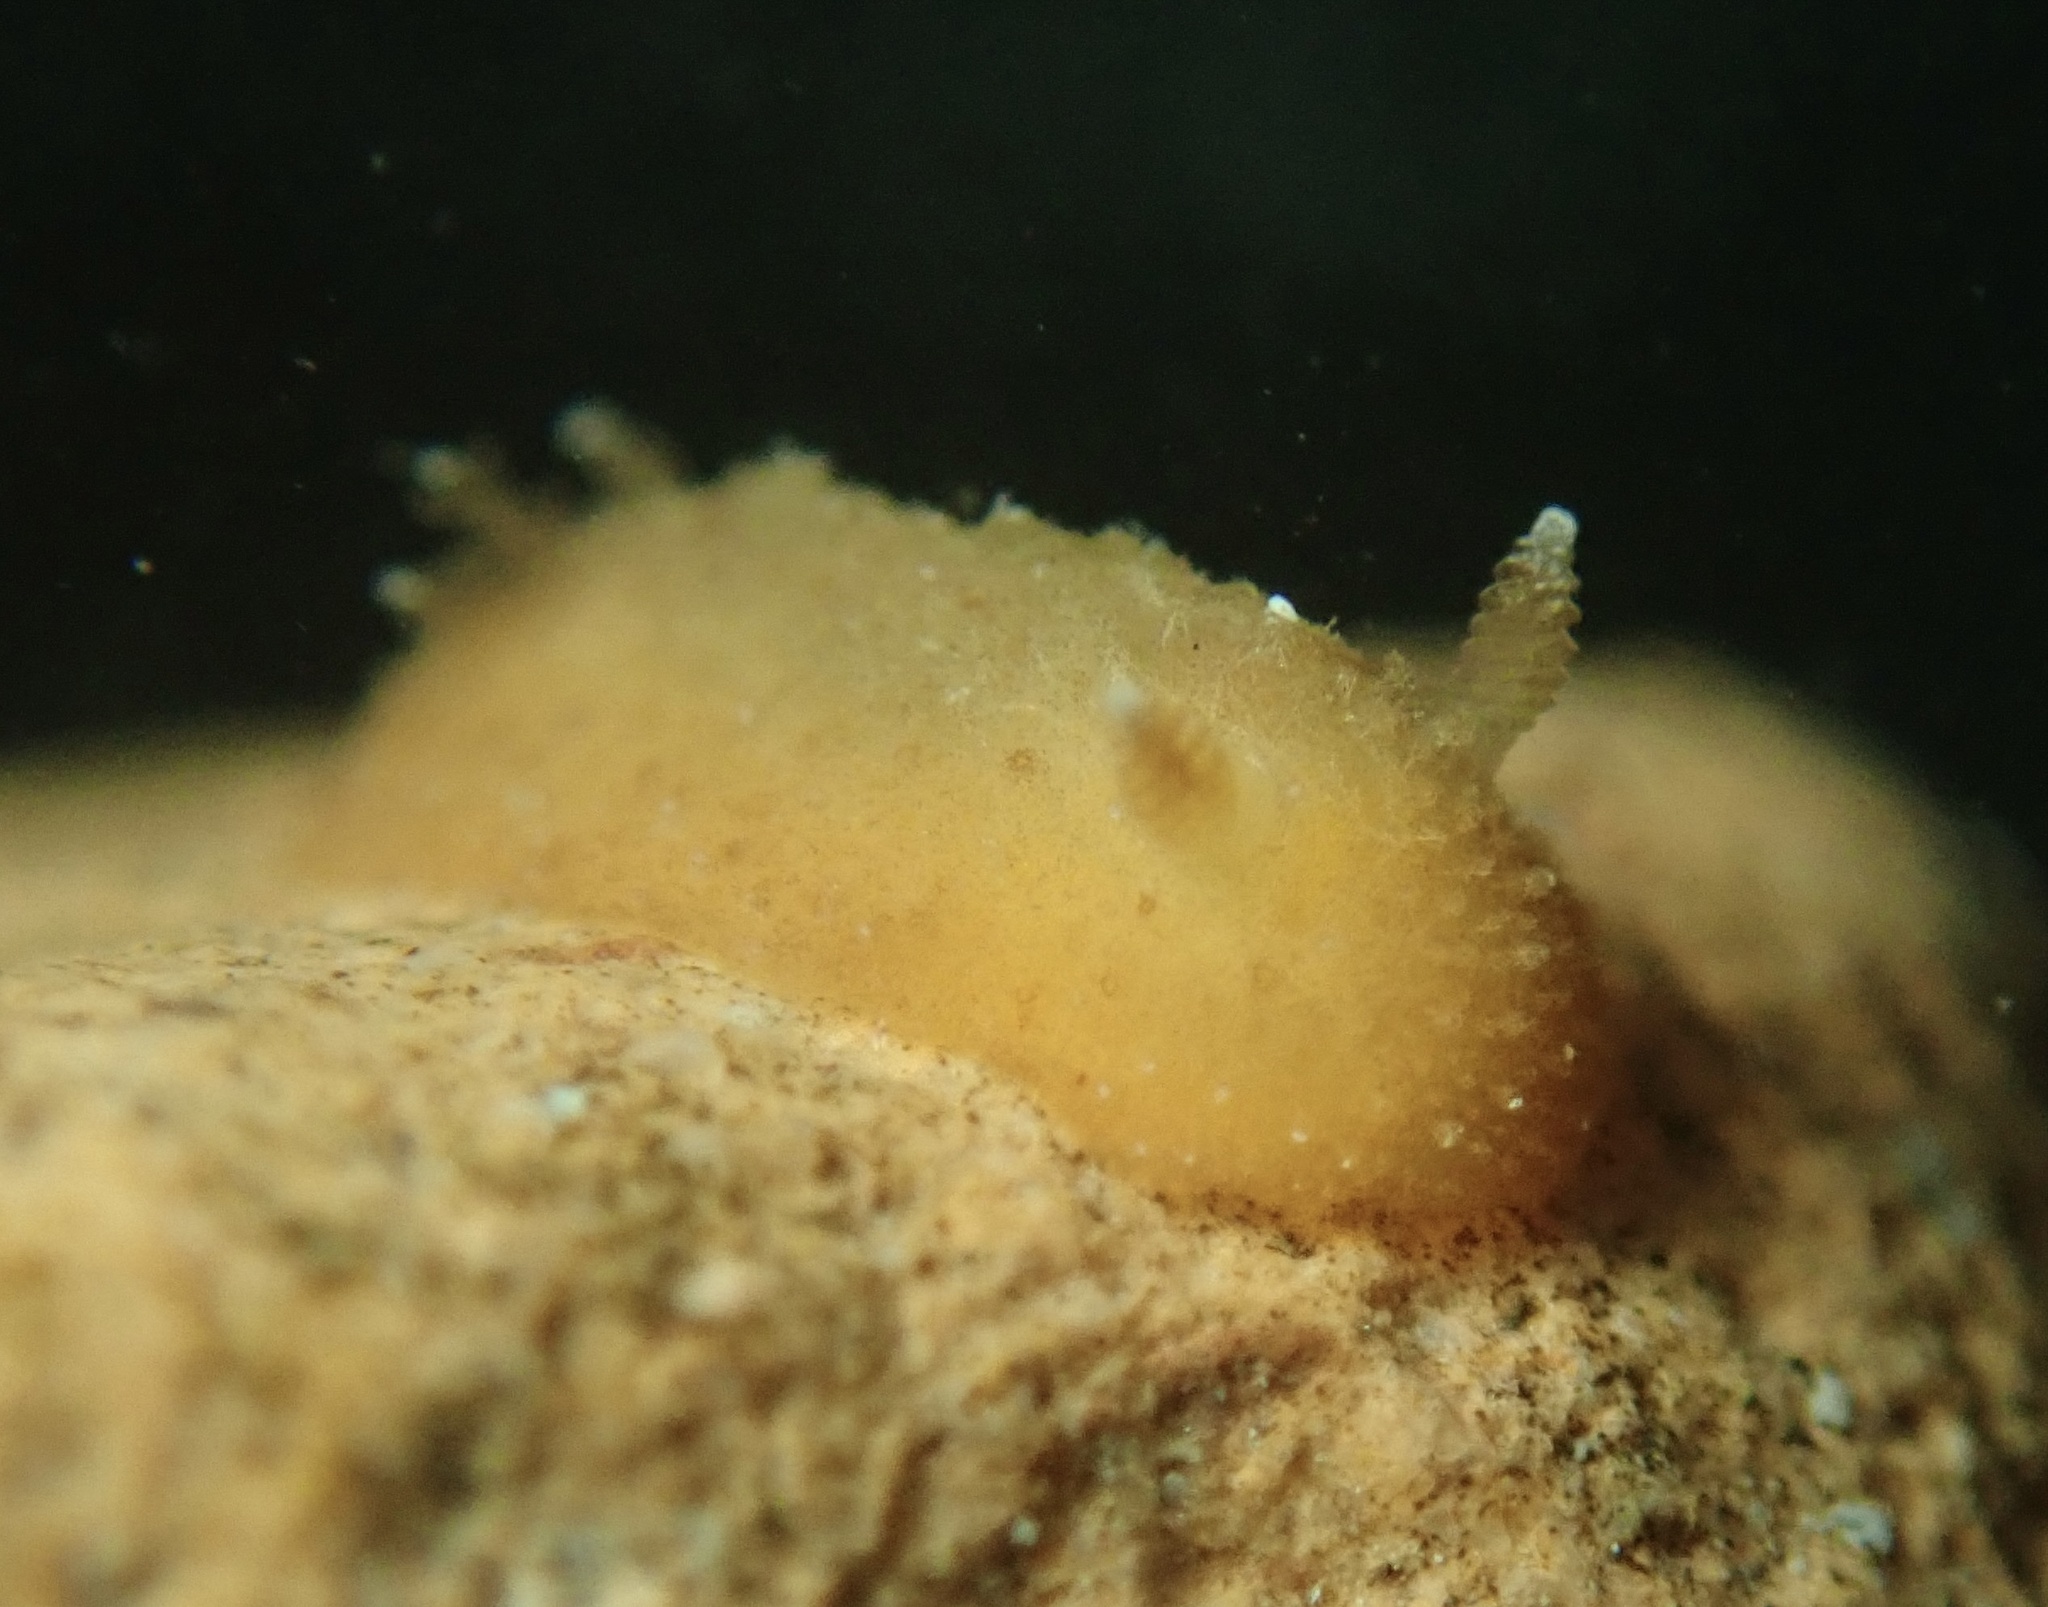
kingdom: Animalia
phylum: Mollusca
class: Gastropoda
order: Nudibranchia
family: Discodorididae
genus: Geitodoris
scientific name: Geitodoris mavis
